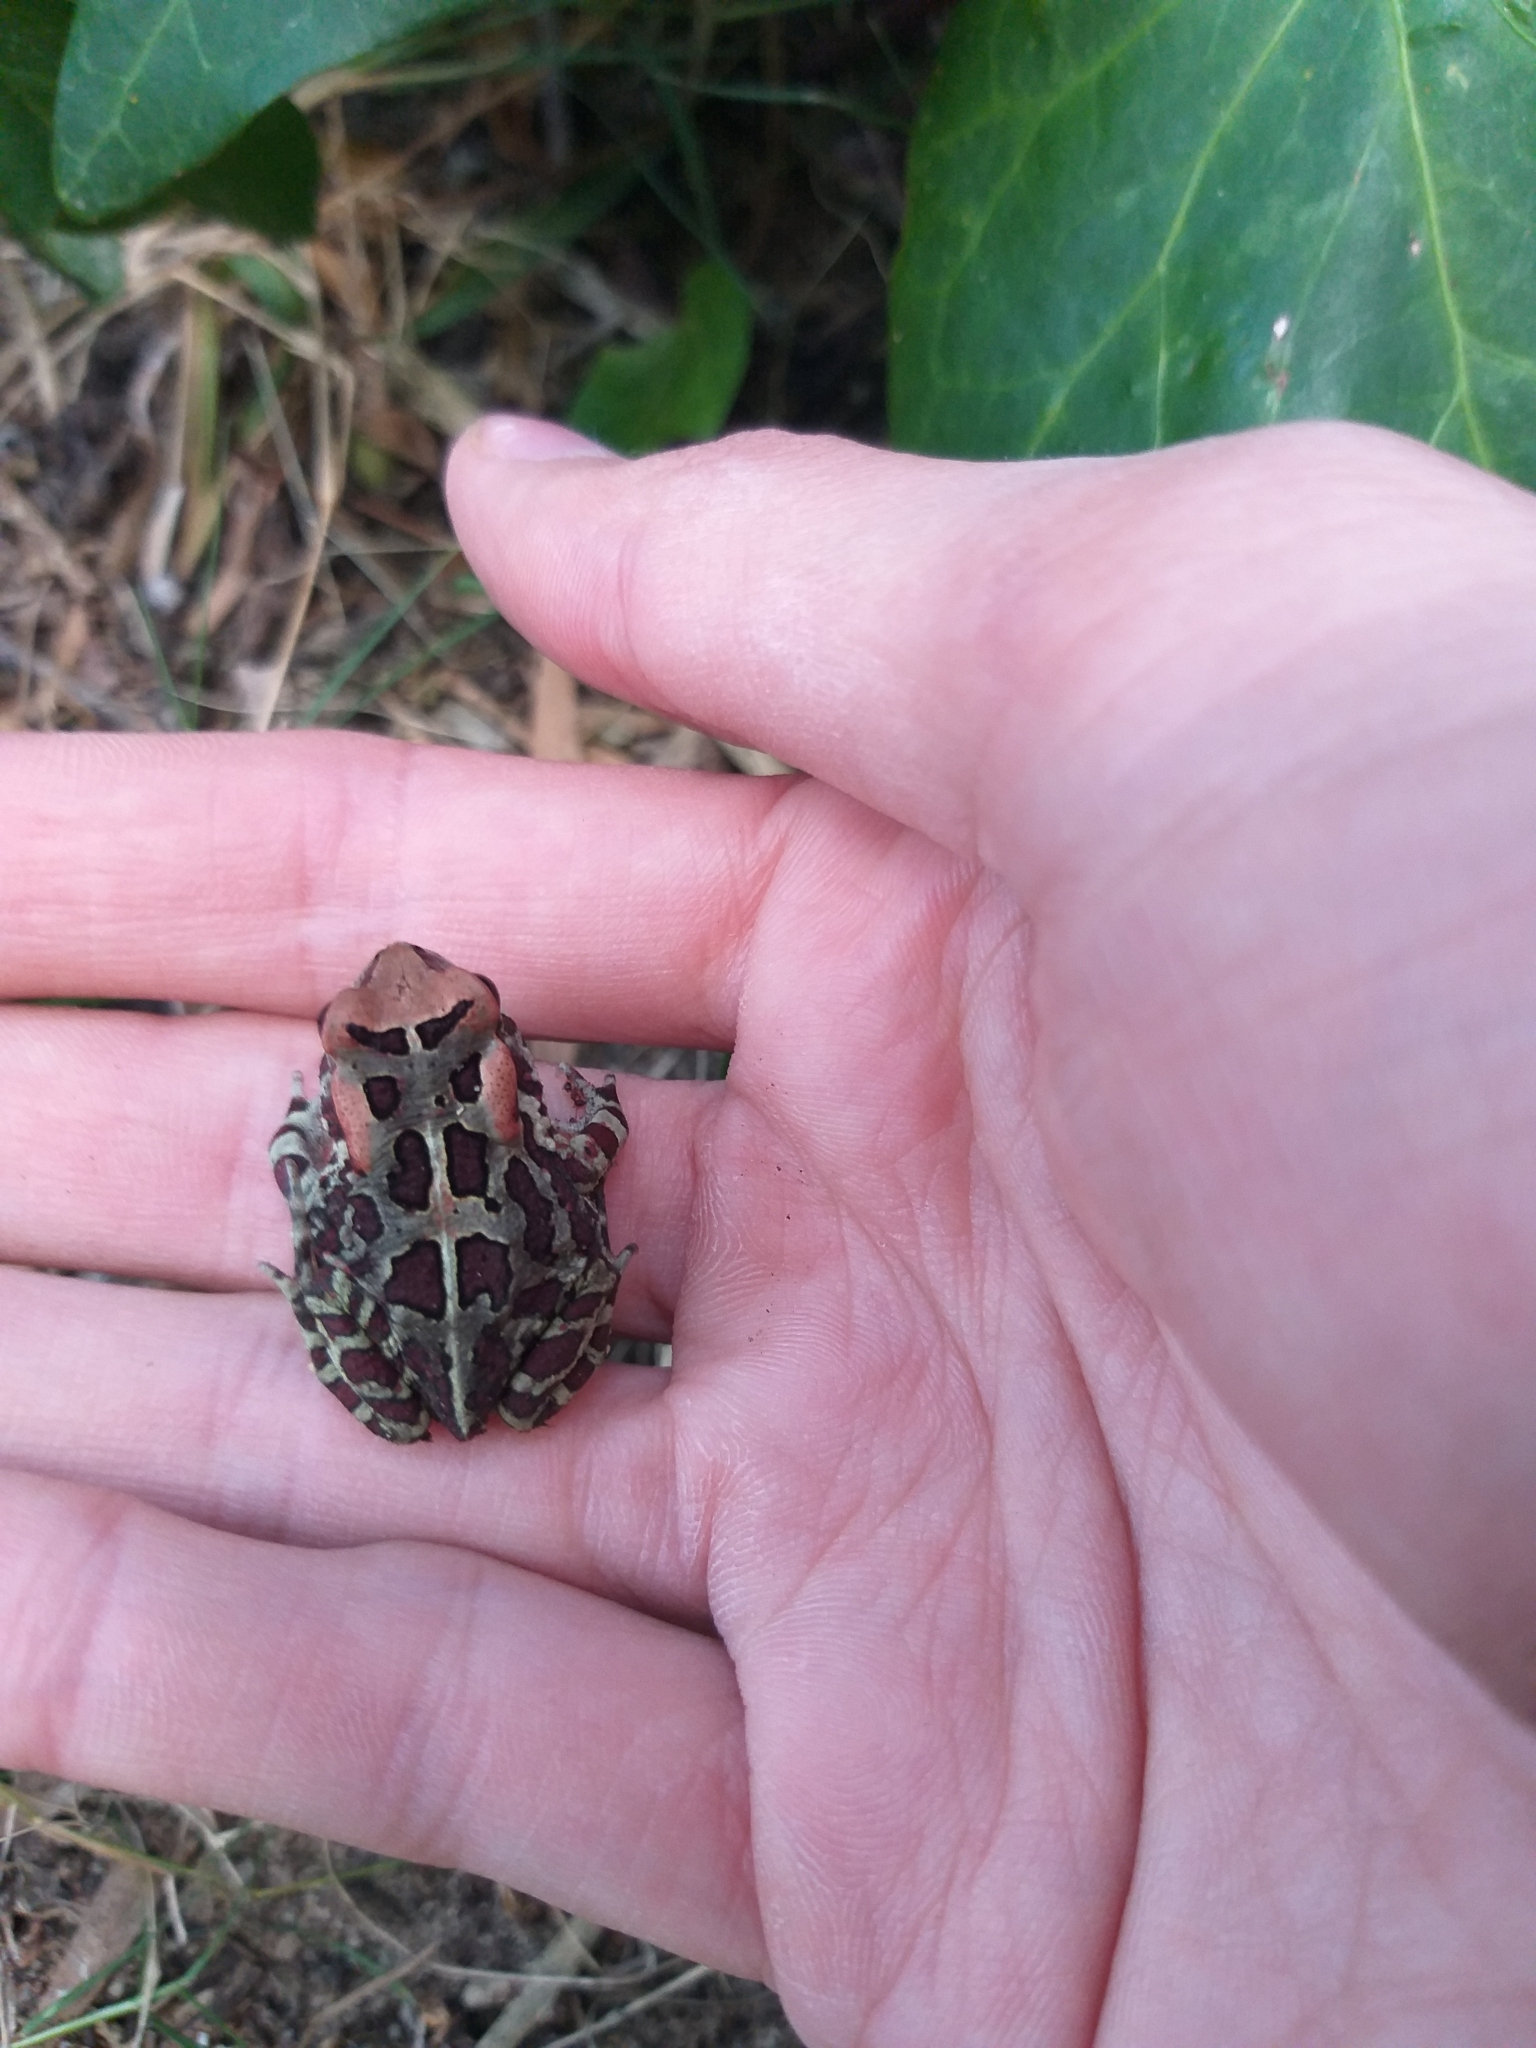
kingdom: Animalia
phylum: Chordata
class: Amphibia
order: Anura
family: Bufonidae
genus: Sclerophrys
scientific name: Sclerophrys pantherina
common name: Panther toad
